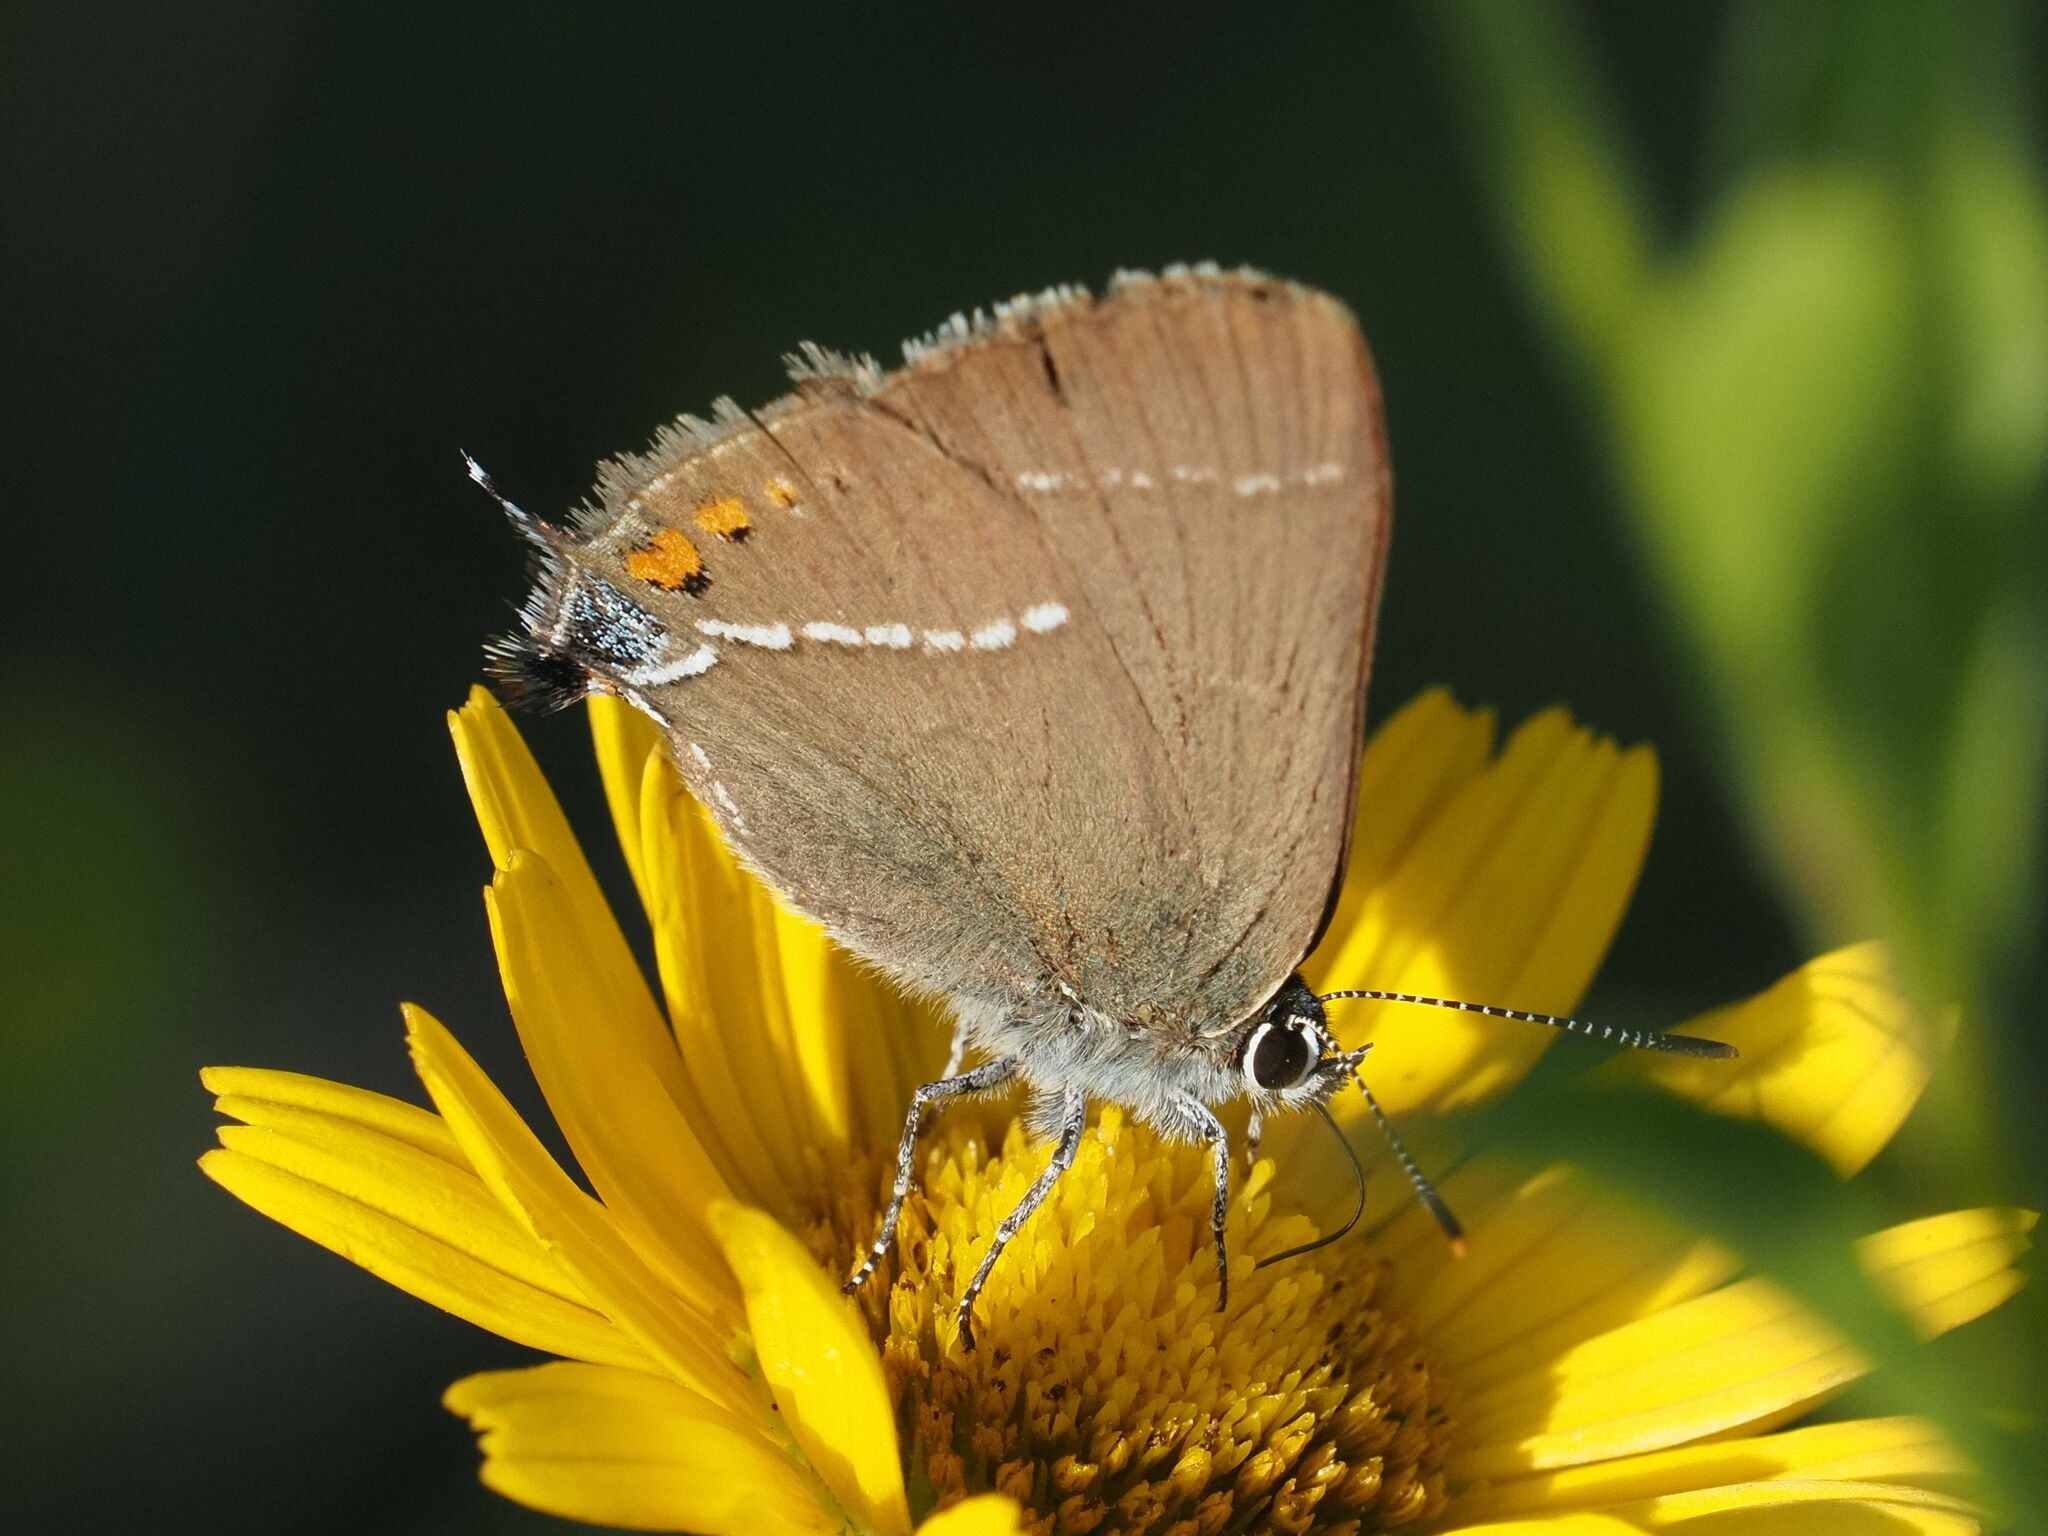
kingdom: Animalia
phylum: Arthropoda
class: Insecta
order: Lepidoptera
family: Lycaenidae
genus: Tuttiola
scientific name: Tuttiola spini
